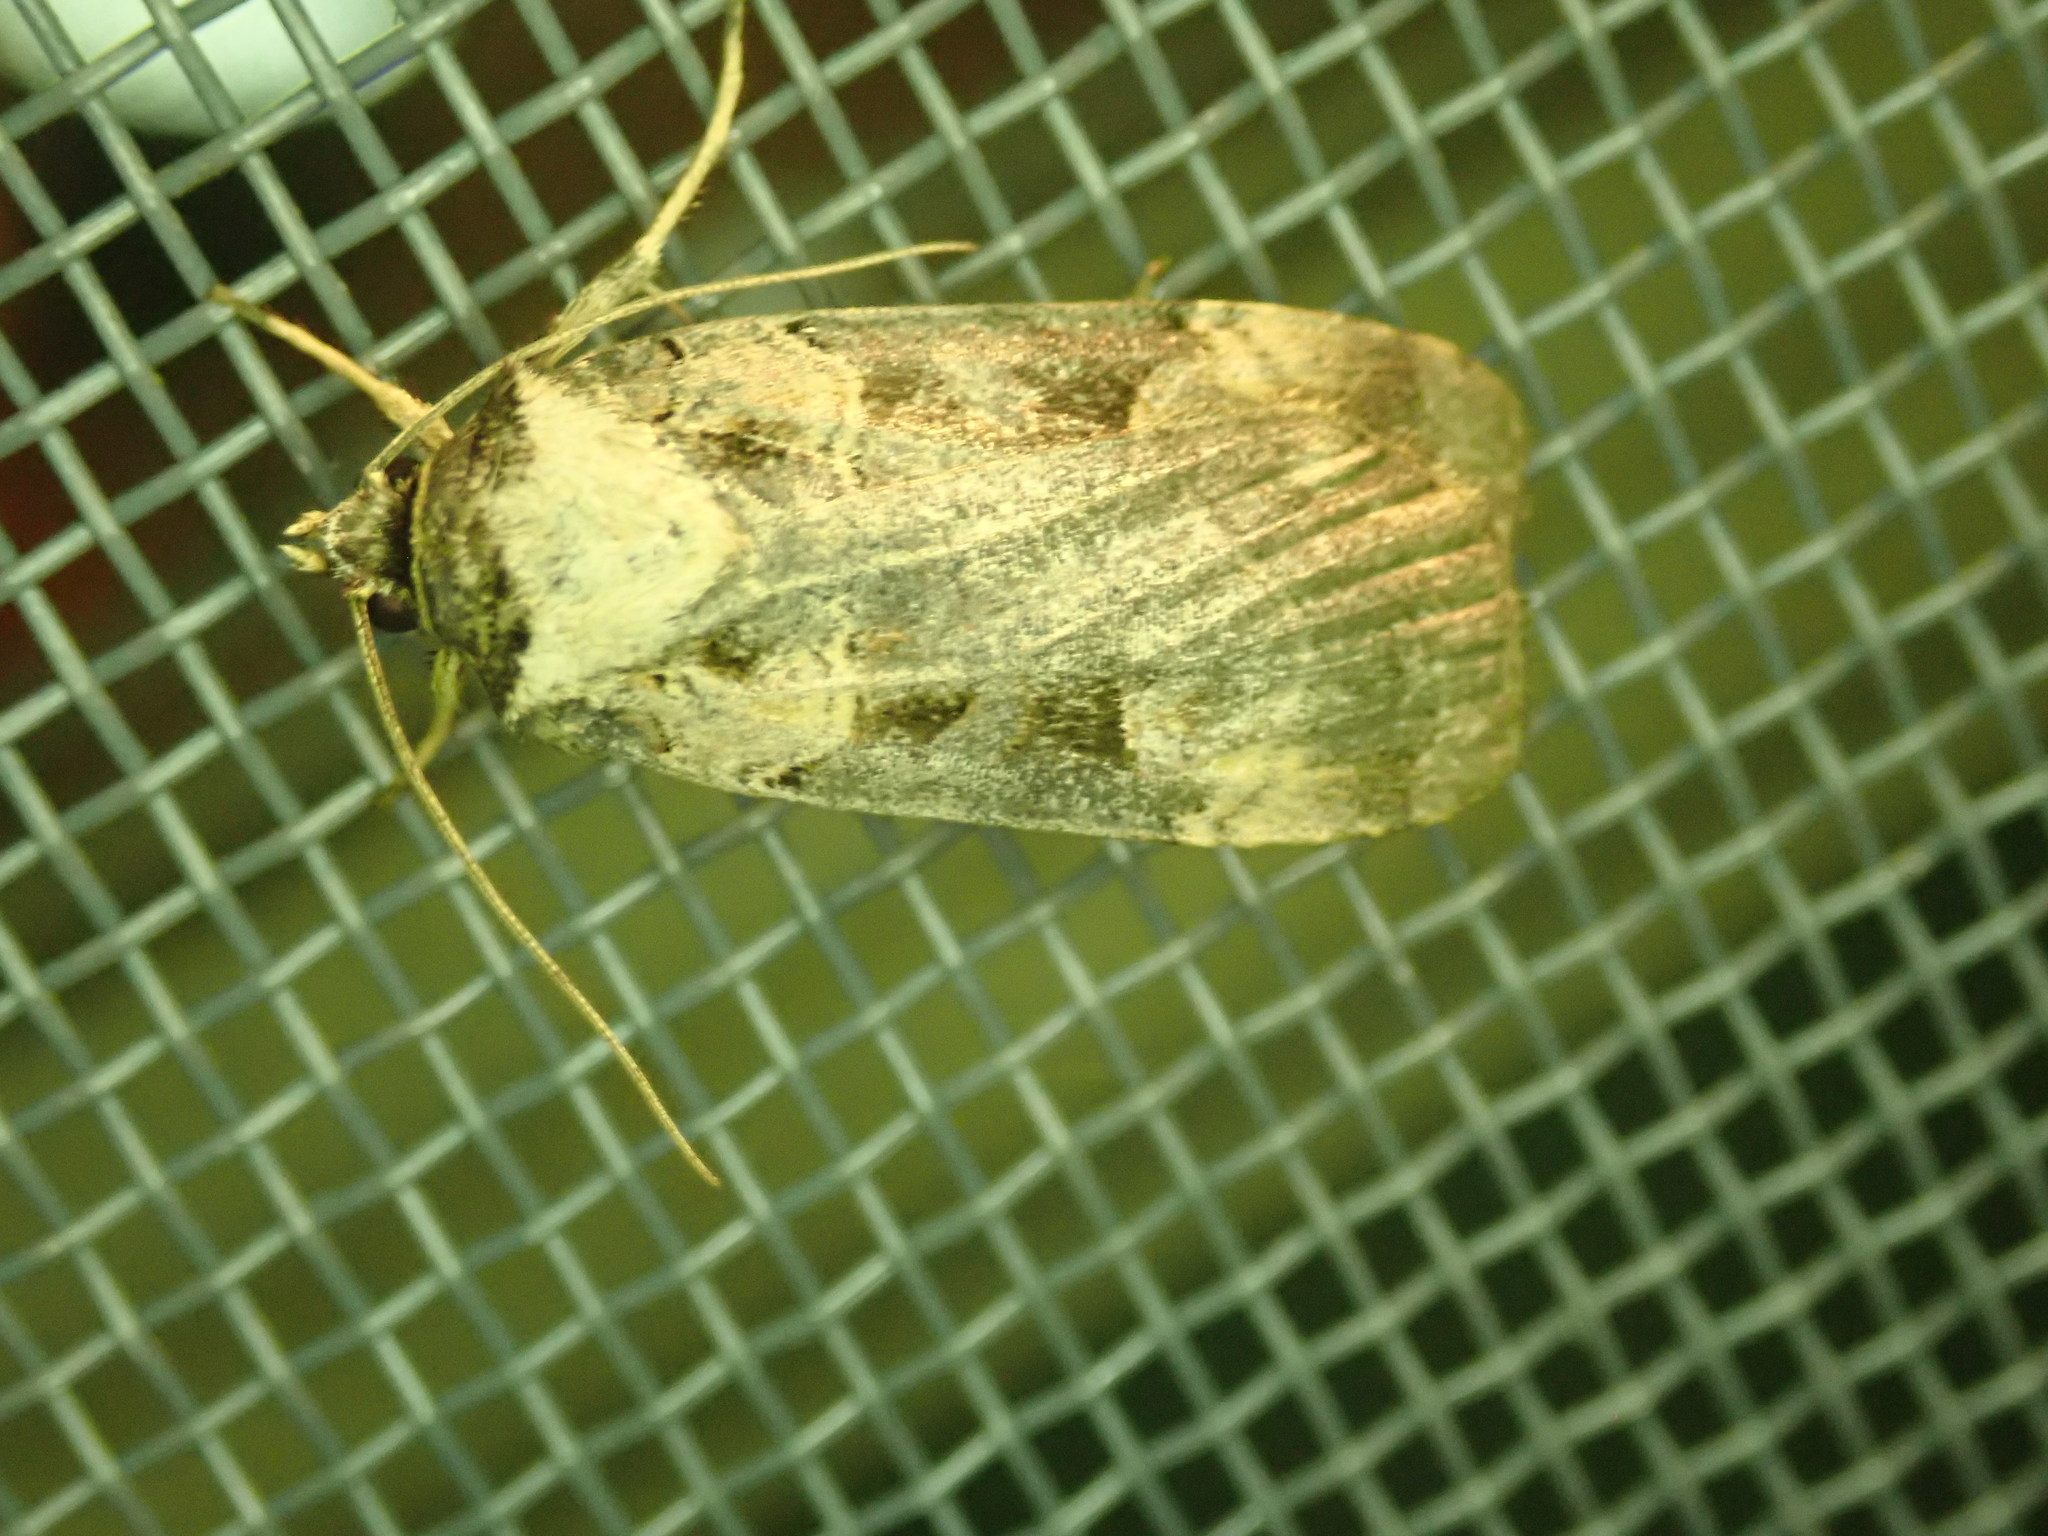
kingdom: Animalia
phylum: Arthropoda
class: Insecta
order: Lepidoptera
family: Noctuidae
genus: Pseudohermonassa
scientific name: Pseudohermonassa bicarnea
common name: Pink spotted dart
